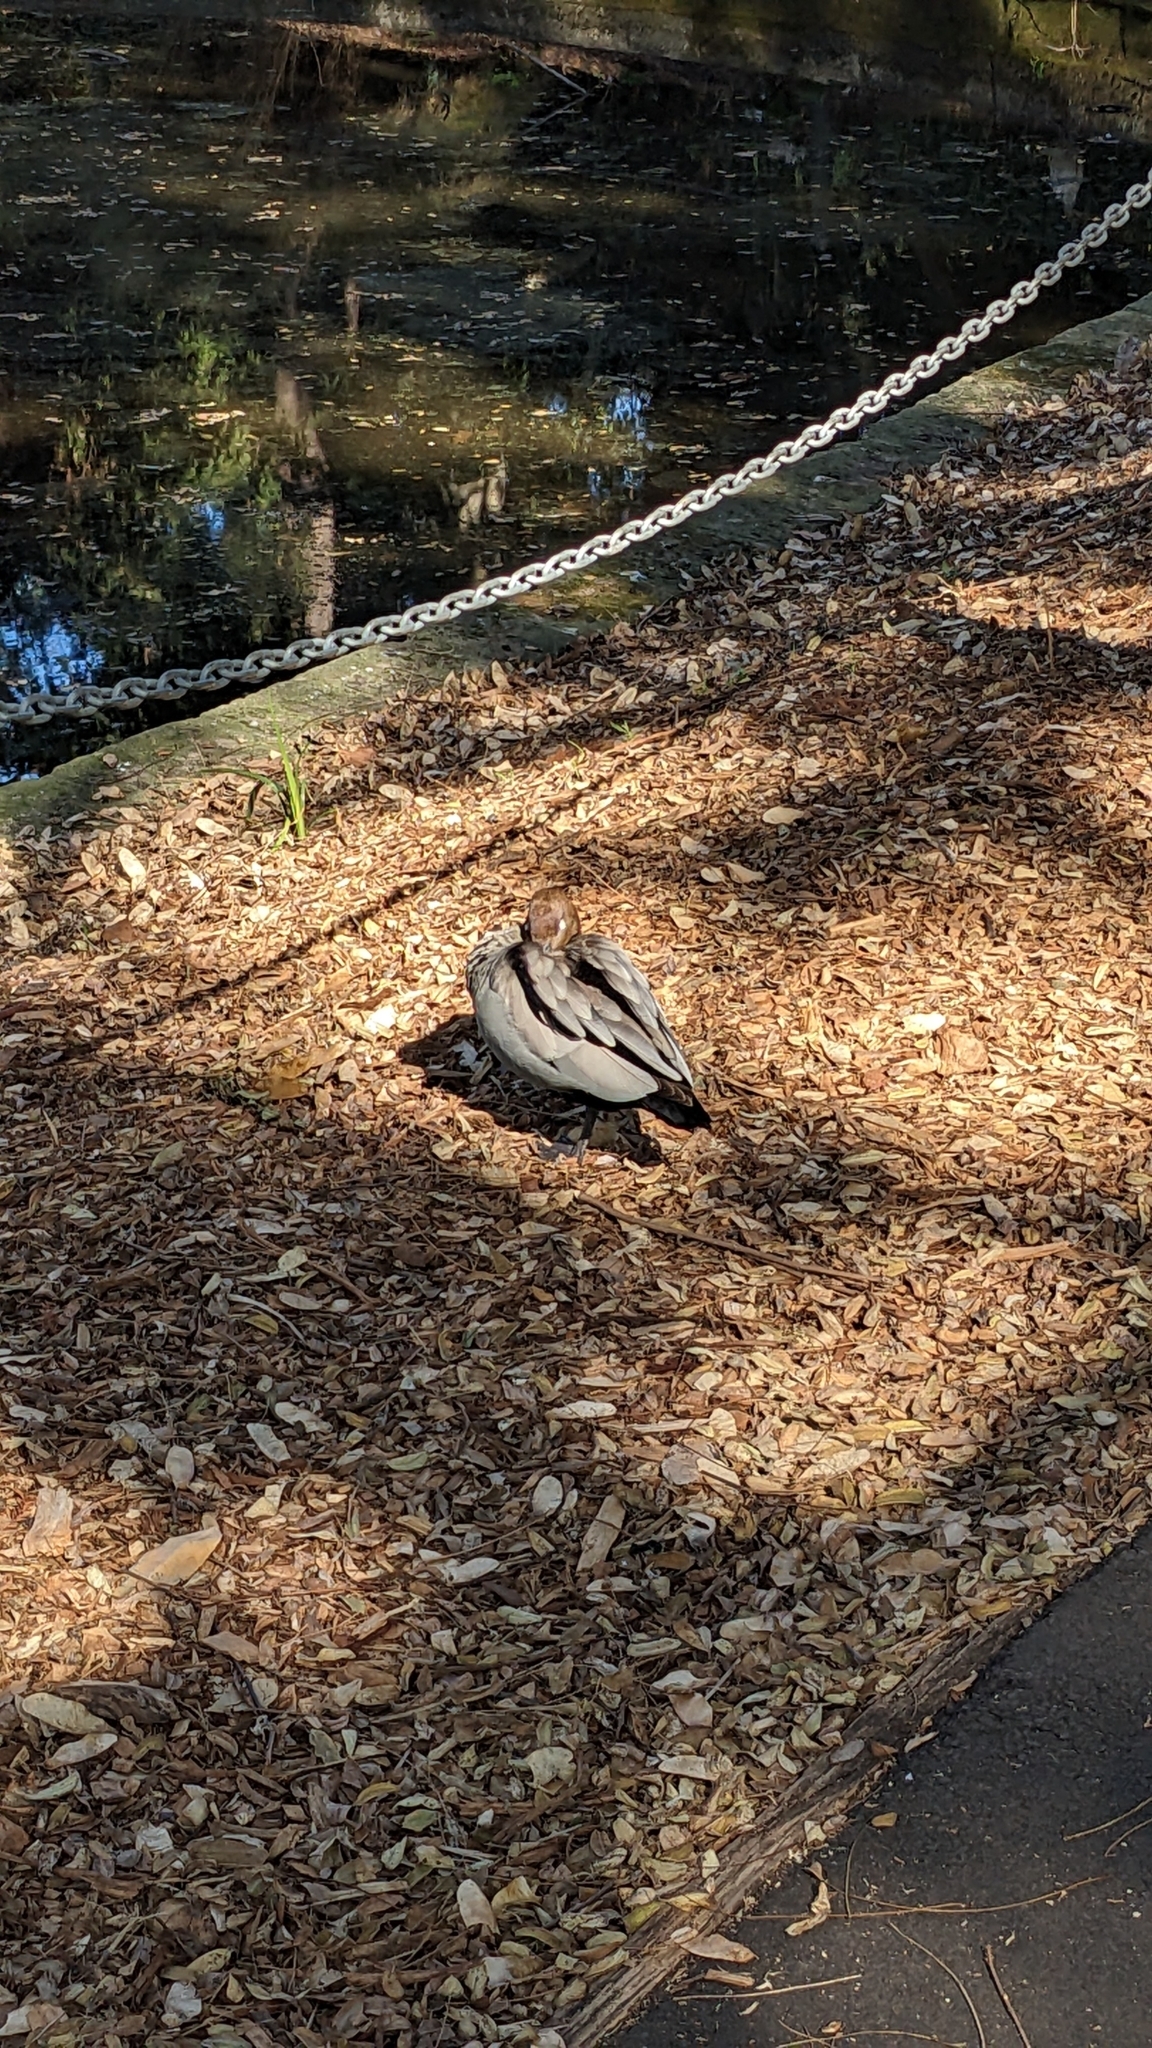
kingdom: Animalia
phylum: Chordata
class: Aves
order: Anseriformes
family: Anatidae
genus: Chenonetta
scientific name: Chenonetta jubata
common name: Maned duck
